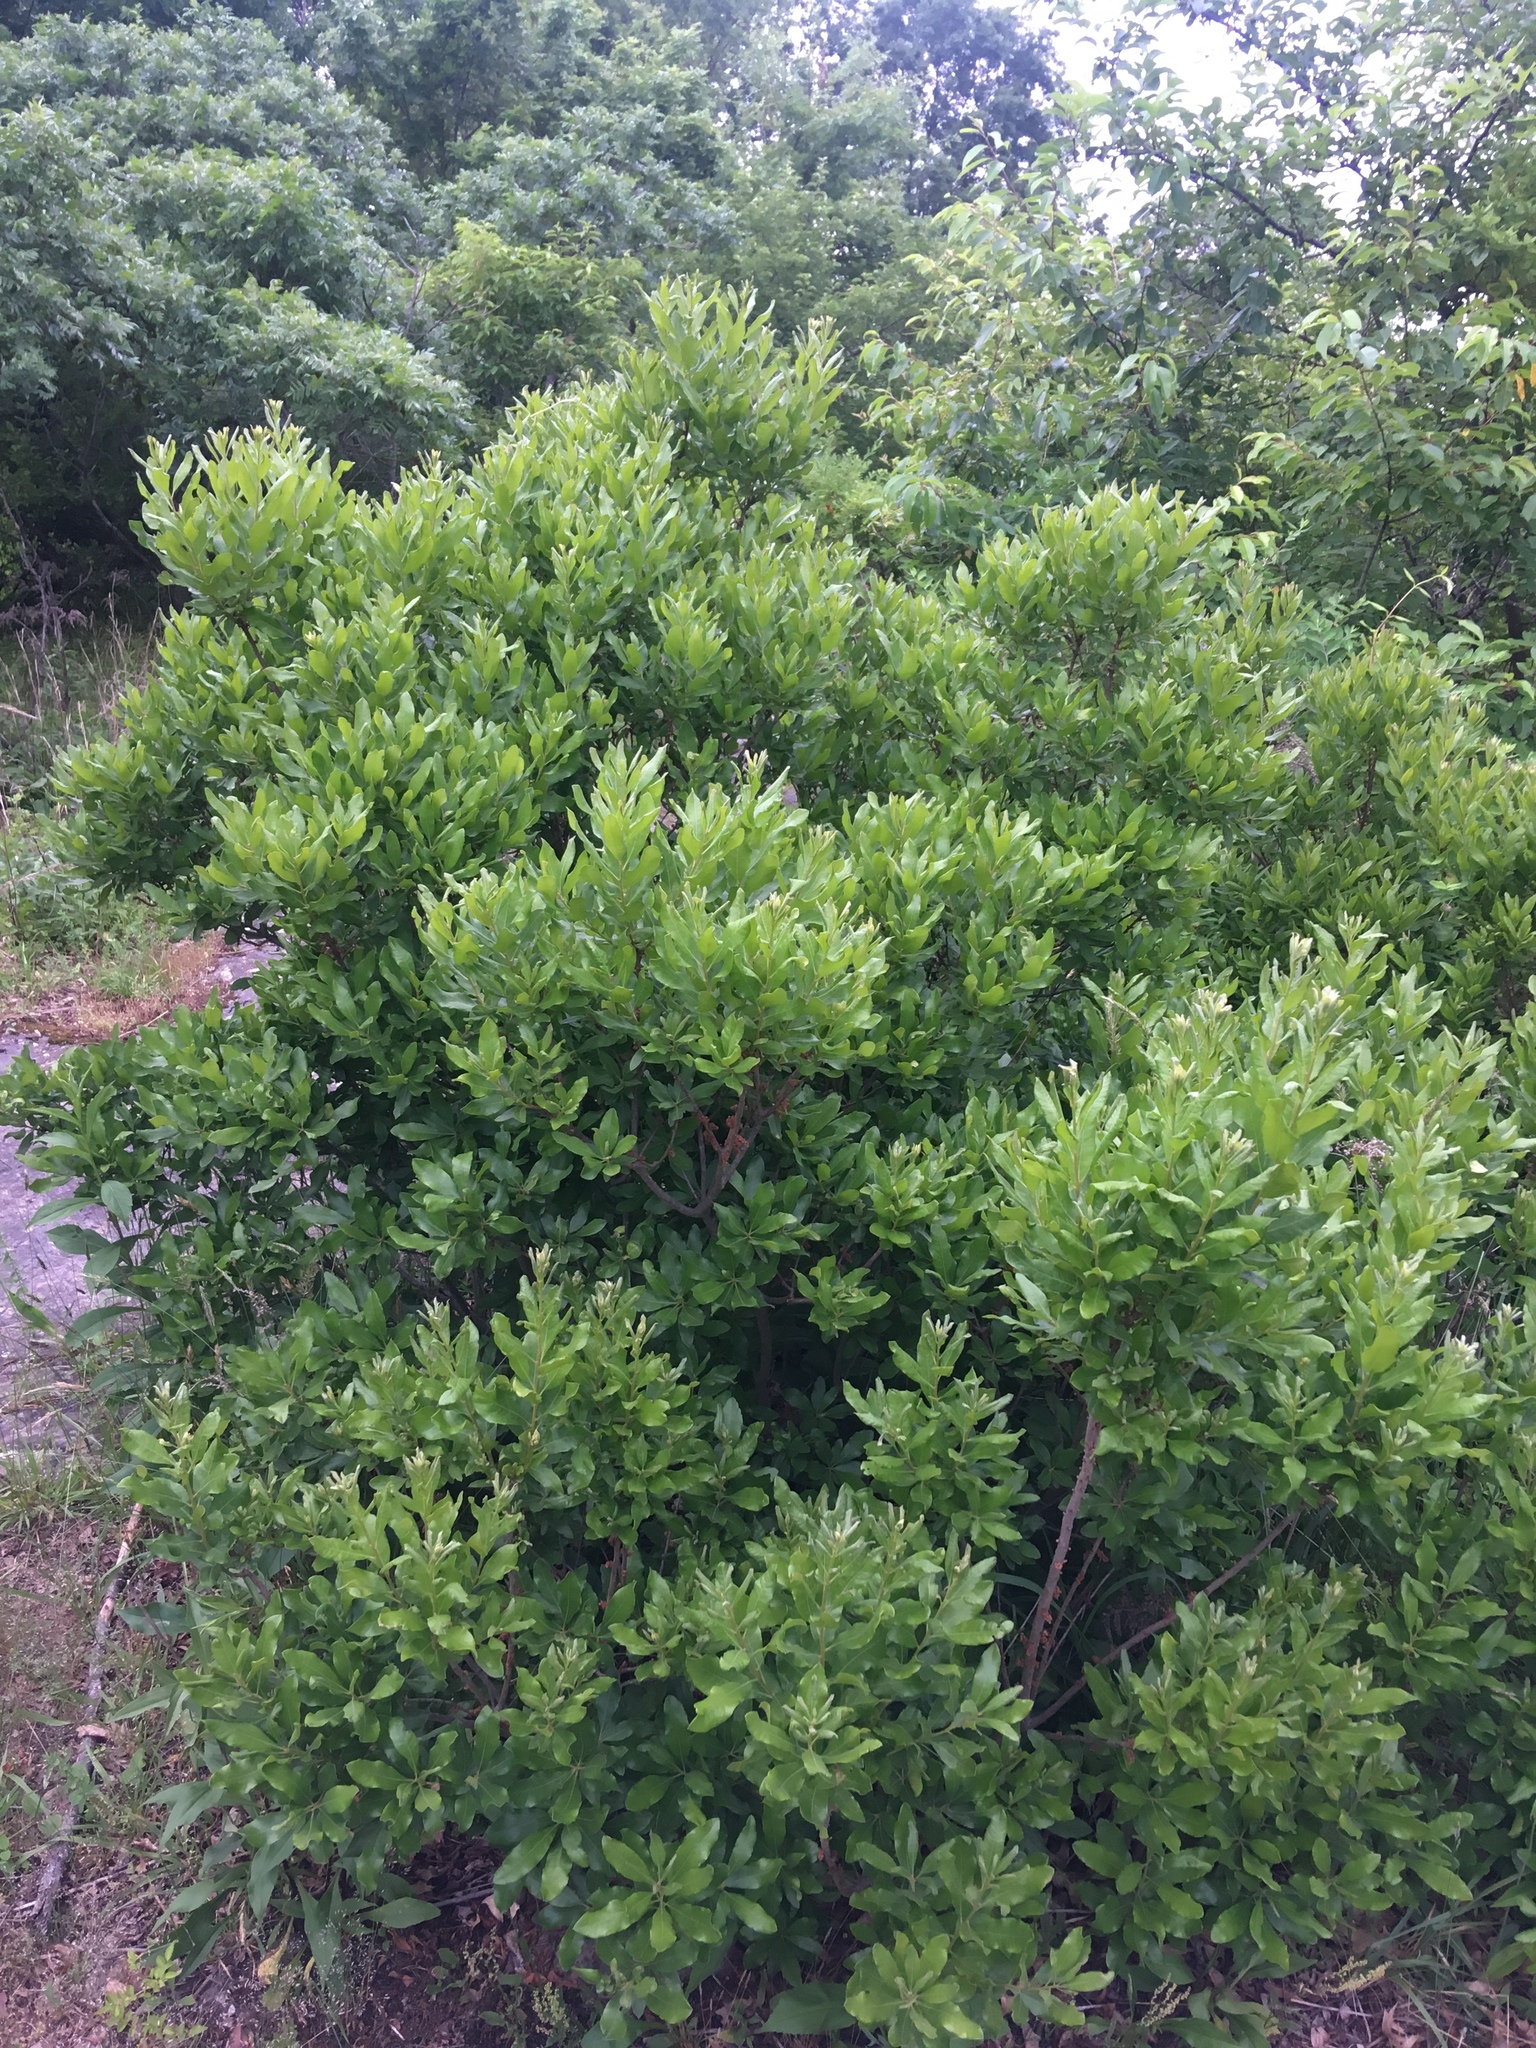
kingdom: Plantae
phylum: Tracheophyta
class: Magnoliopsida
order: Fagales
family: Myricaceae
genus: Morella
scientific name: Morella pensylvanica
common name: Northern bayberry
